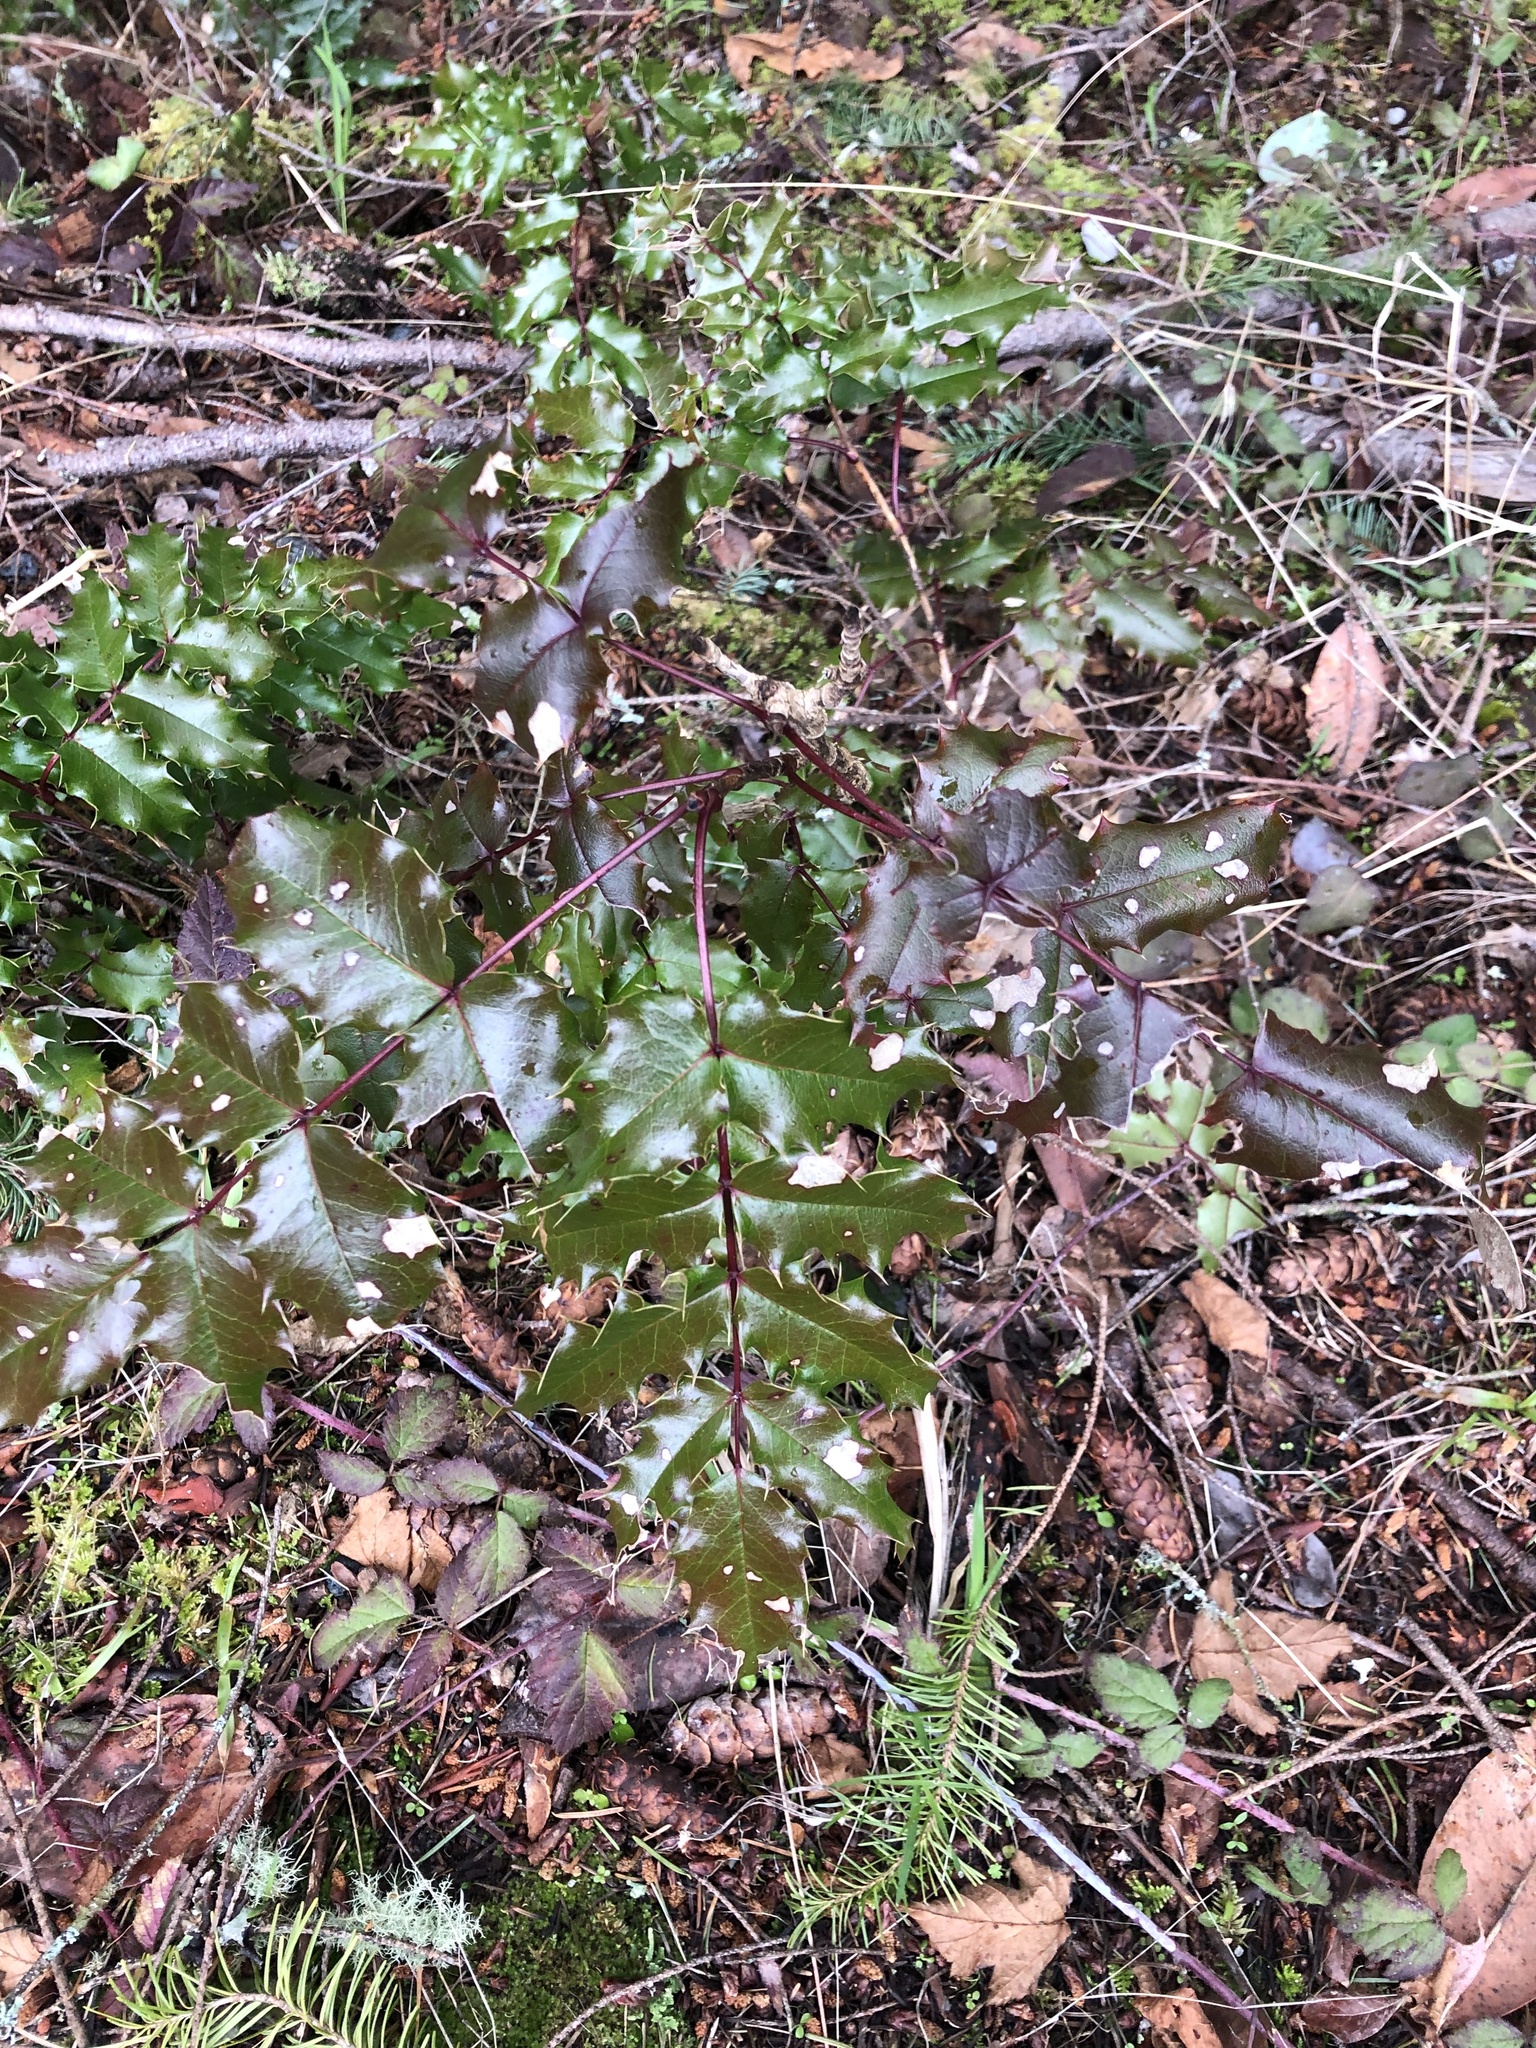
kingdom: Plantae
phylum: Tracheophyta
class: Magnoliopsida
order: Ranunculales
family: Berberidaceae
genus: Mahonia
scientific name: Mahonia aquifolium
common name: Oregon-grape
